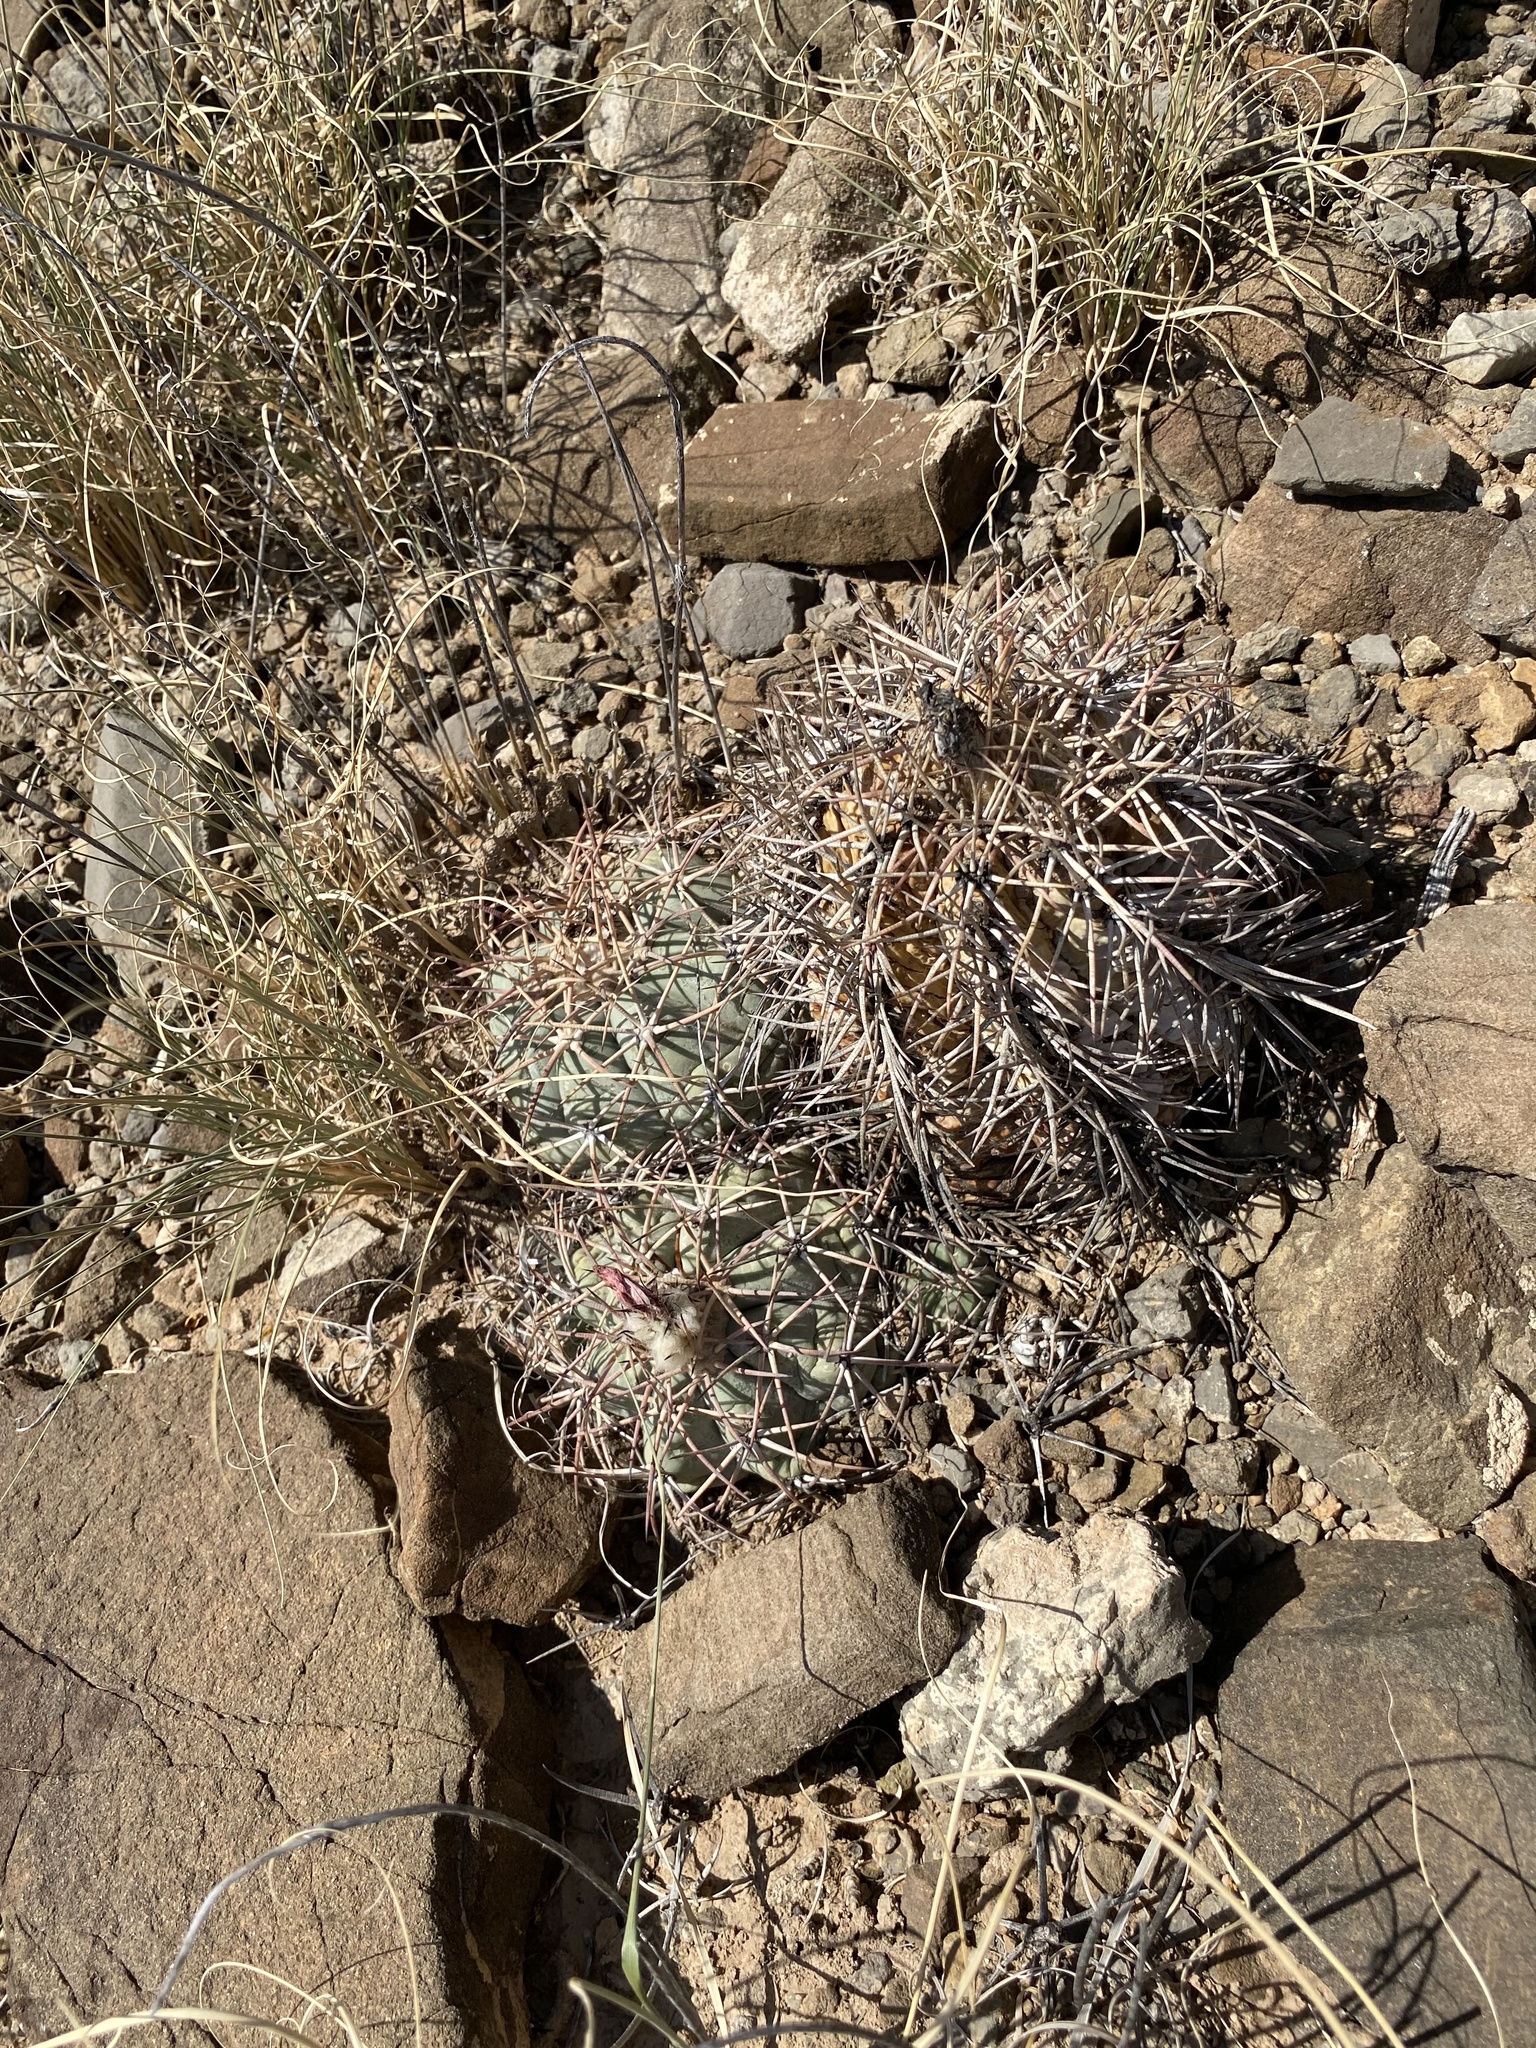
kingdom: Plantae
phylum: Tracheophyta
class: Magnoliopsida
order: Caryophyllales
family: Cactaceae
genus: Echinocactus
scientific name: Echinocactus horizonthalonius
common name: Devilshead
